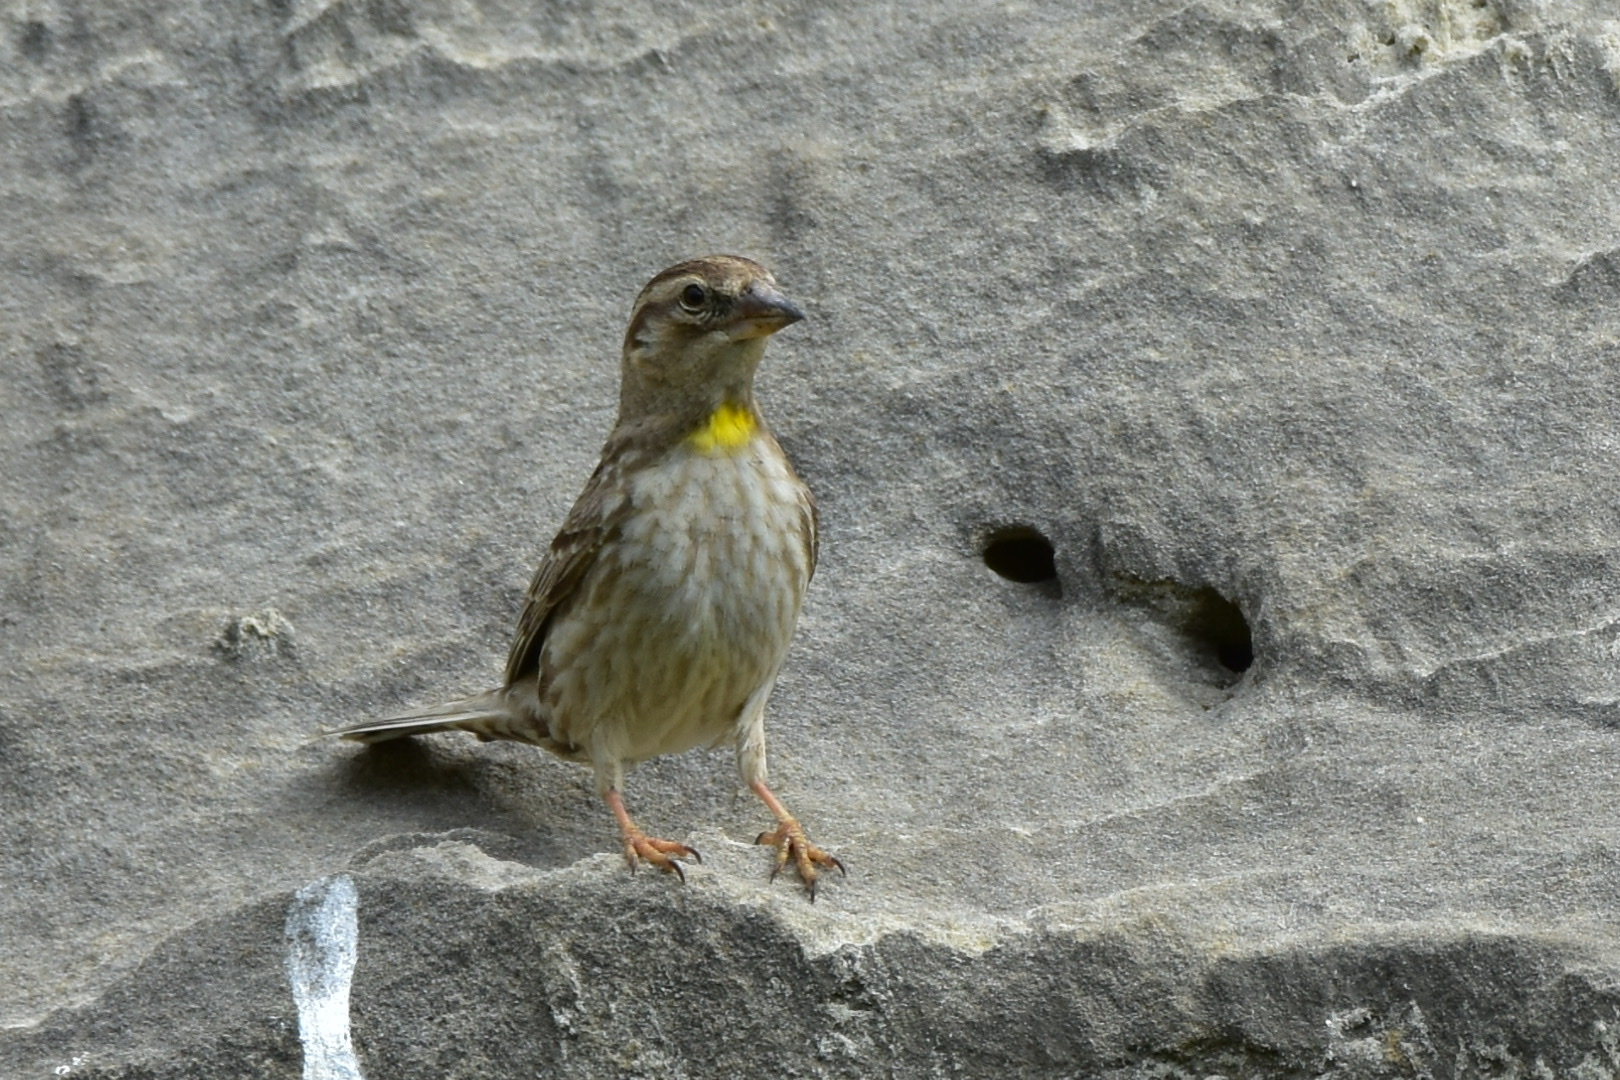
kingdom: Animalia
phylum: Chordata
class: Aves
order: Passeriformes
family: Passeridae
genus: Petronia
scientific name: Petronia petronia
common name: Rock sparrow
